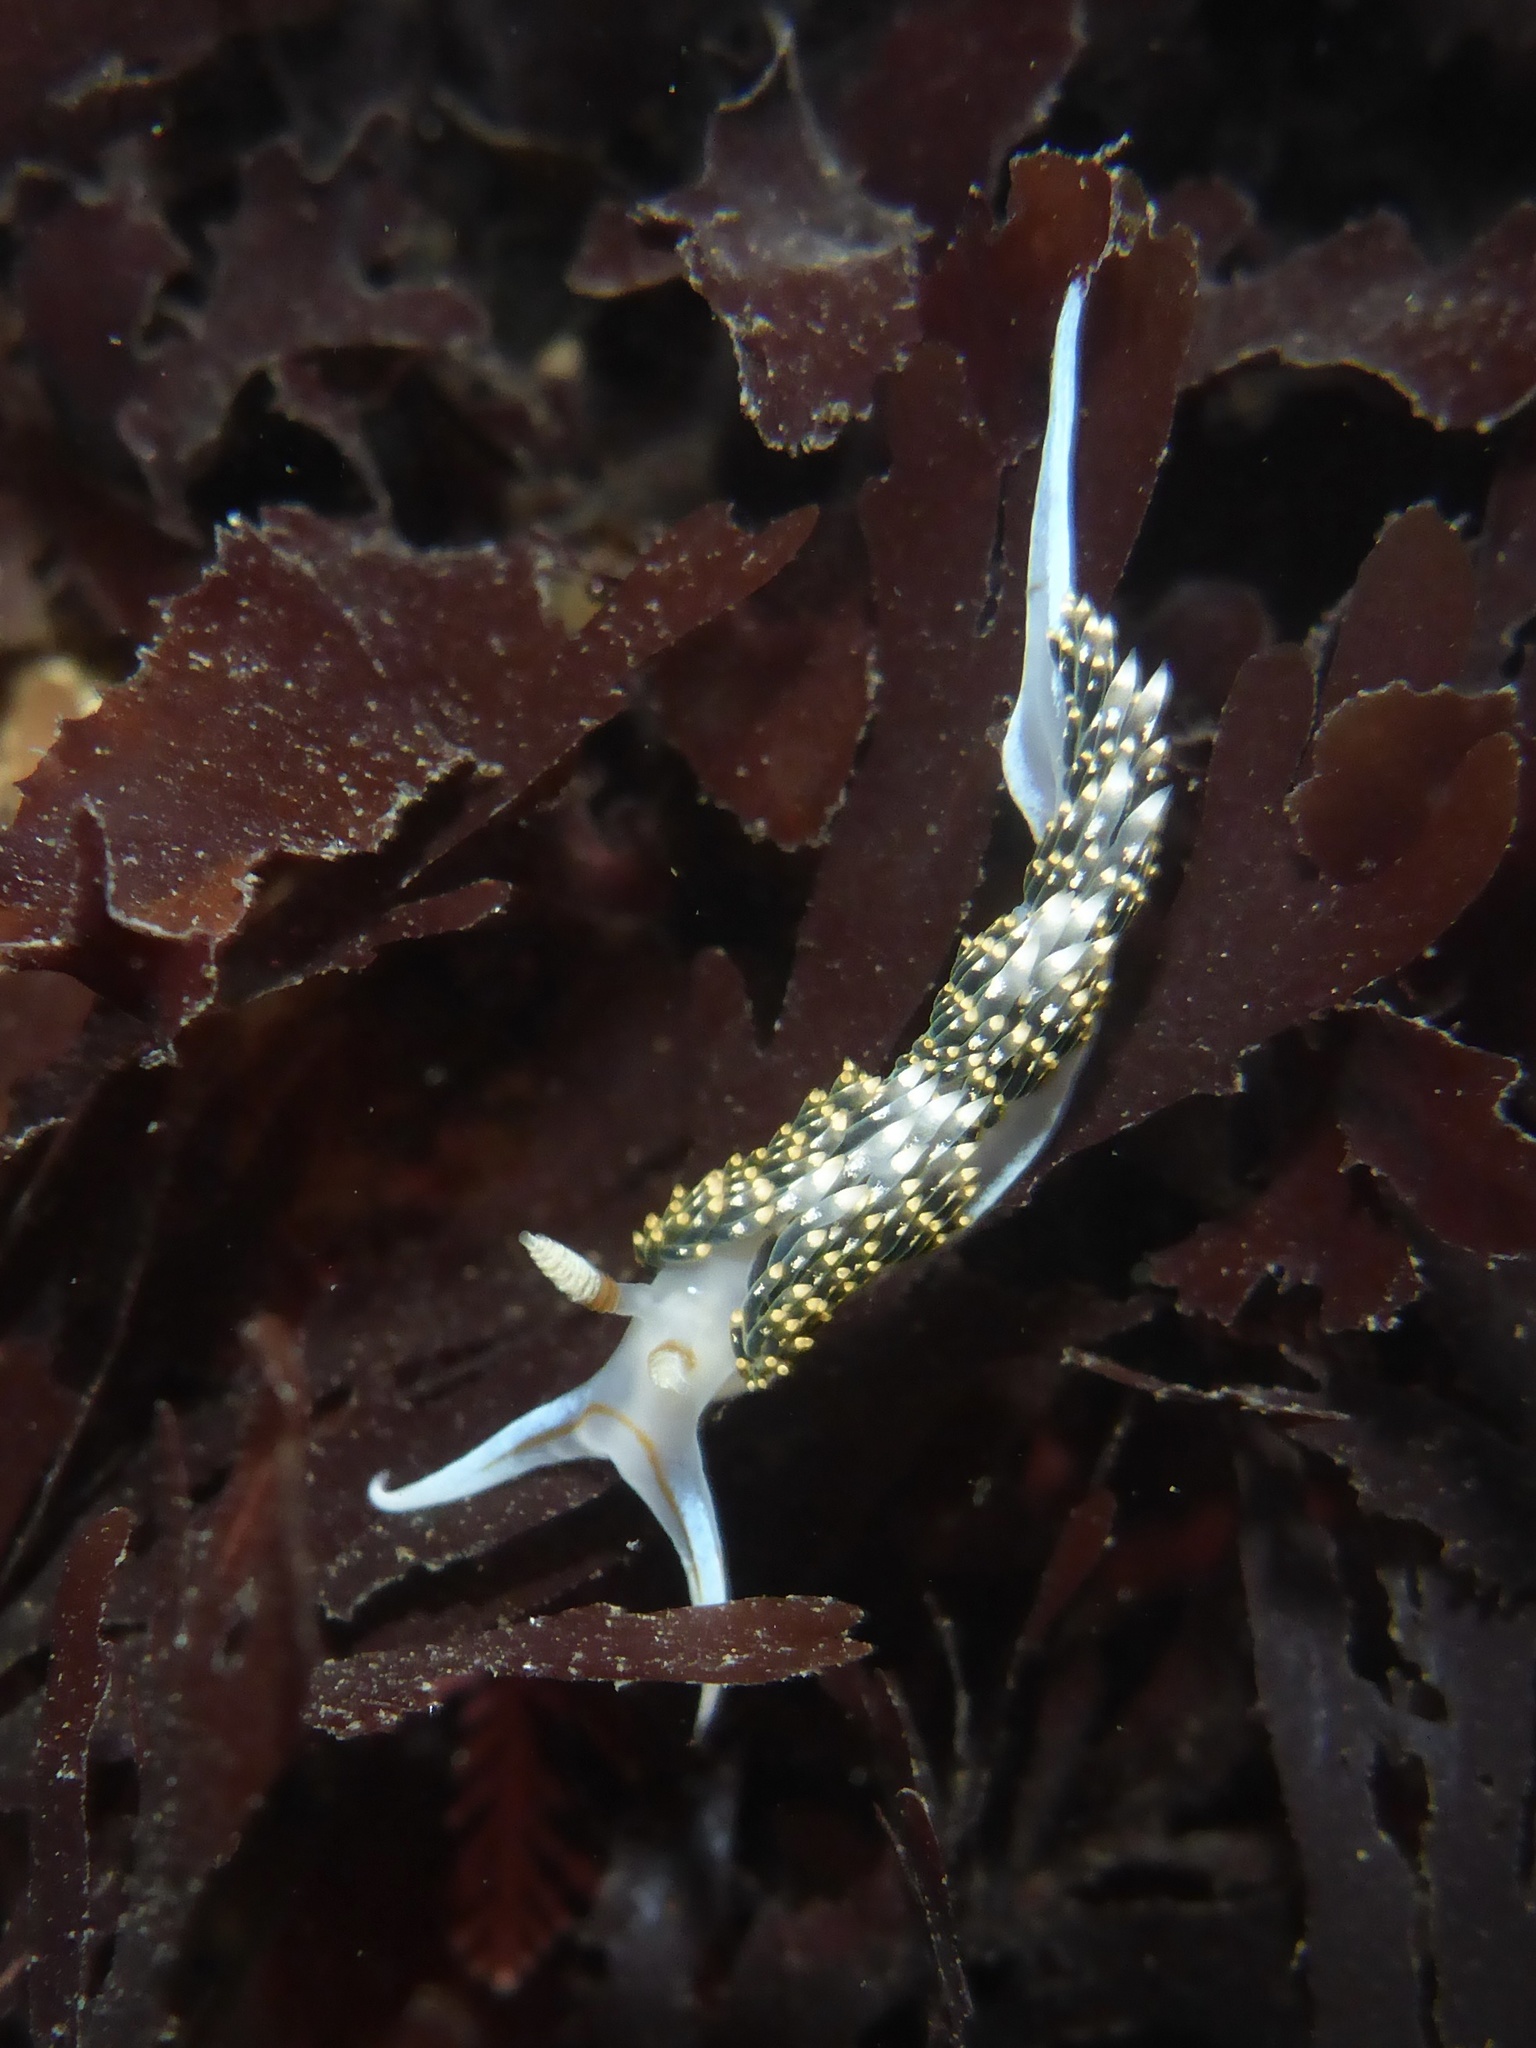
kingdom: Animalia
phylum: Mollusca
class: Gastropoda
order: Nudibranchia
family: Facelinidae
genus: Phidiana
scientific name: Phidiana hiltoni
